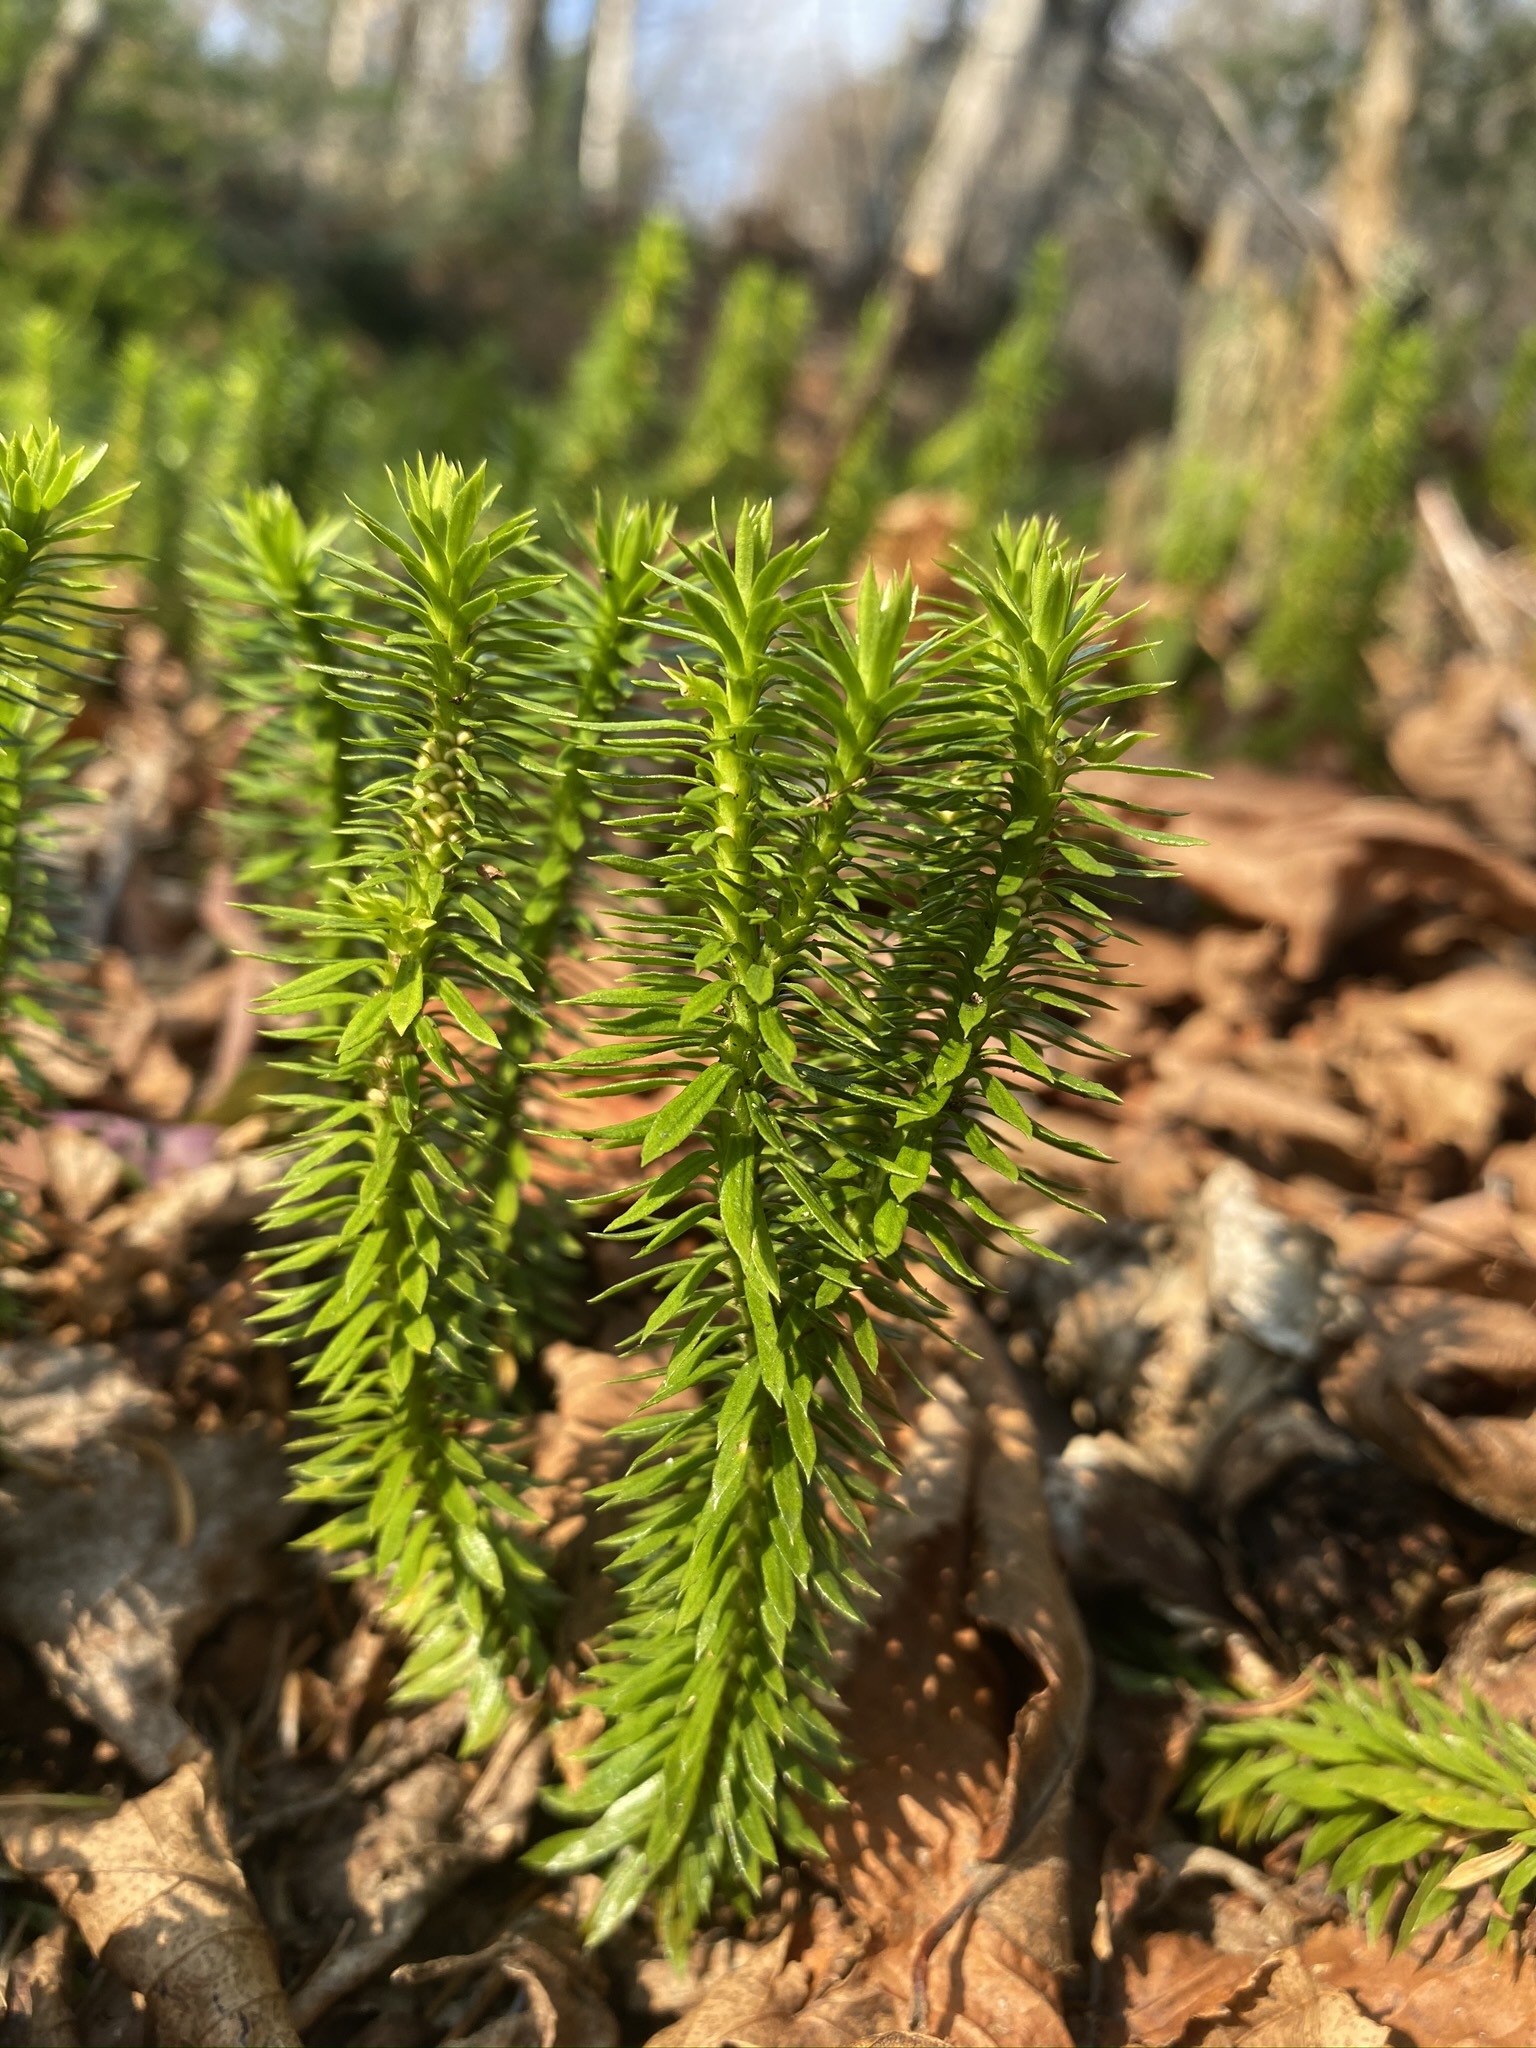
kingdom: Plantae
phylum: Tracheophyta
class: Lycopodiopsida
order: Lycopodiales
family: Lycopodiaceae
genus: Huperzia
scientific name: Huperzia lucidula
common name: Shining clubmoss
